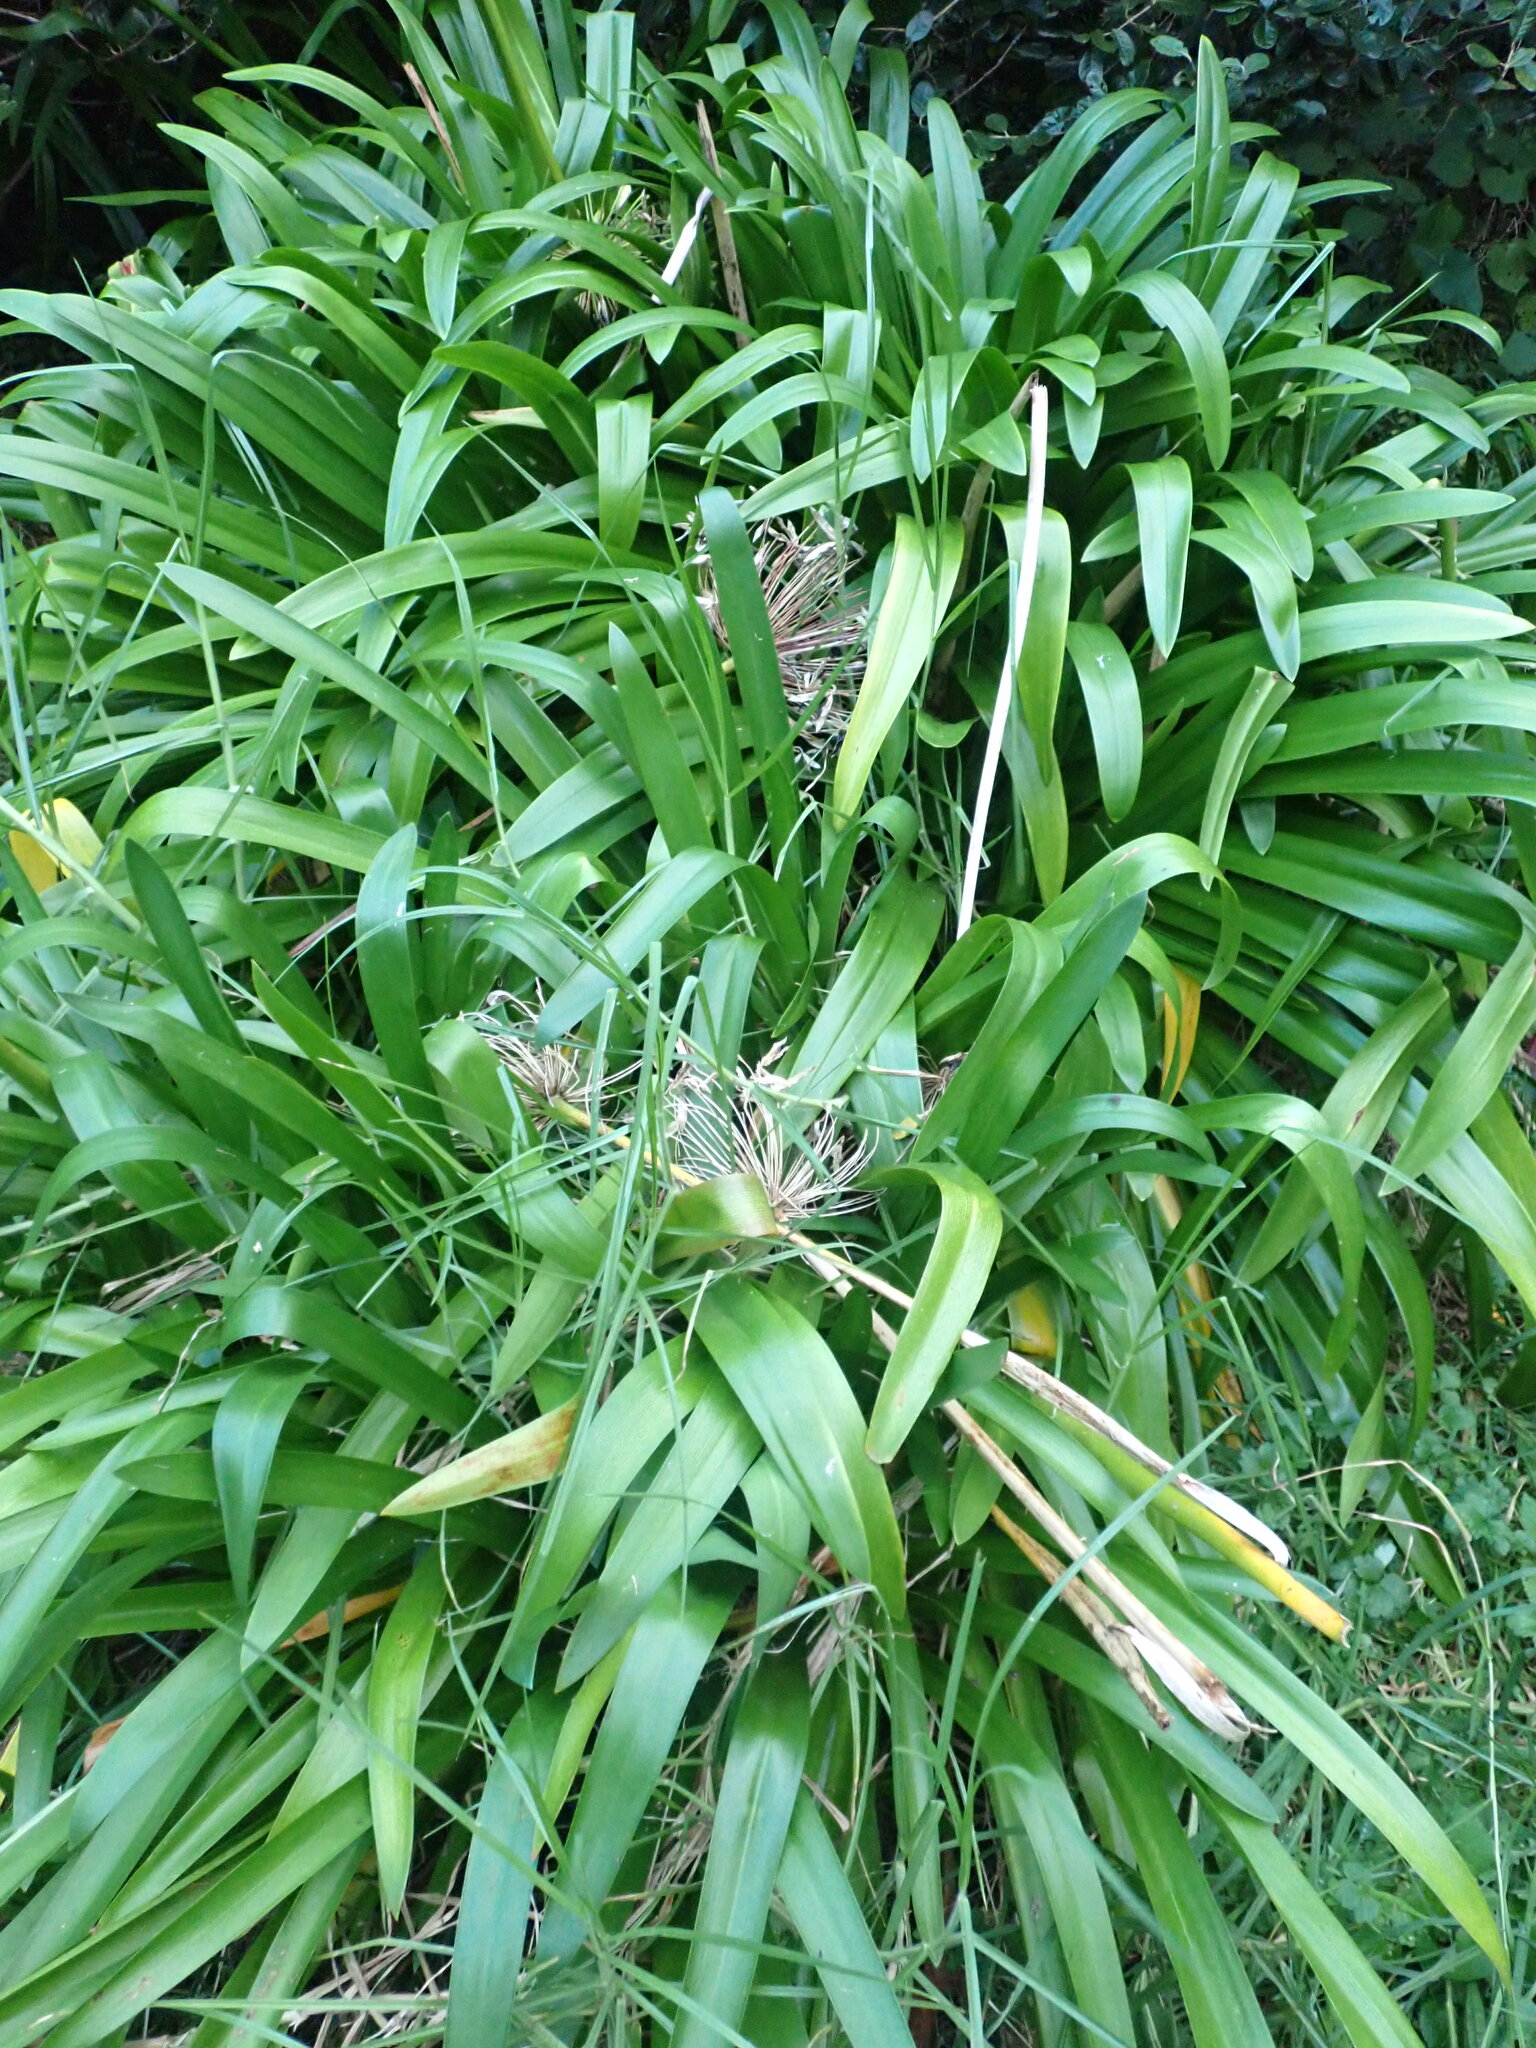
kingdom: Plantae
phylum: Tracheophyta
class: Liliopsida
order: Asparagales
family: Amaryllidaceae
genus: Agapanthus
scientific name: Agapanthus praecox
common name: African-lily
